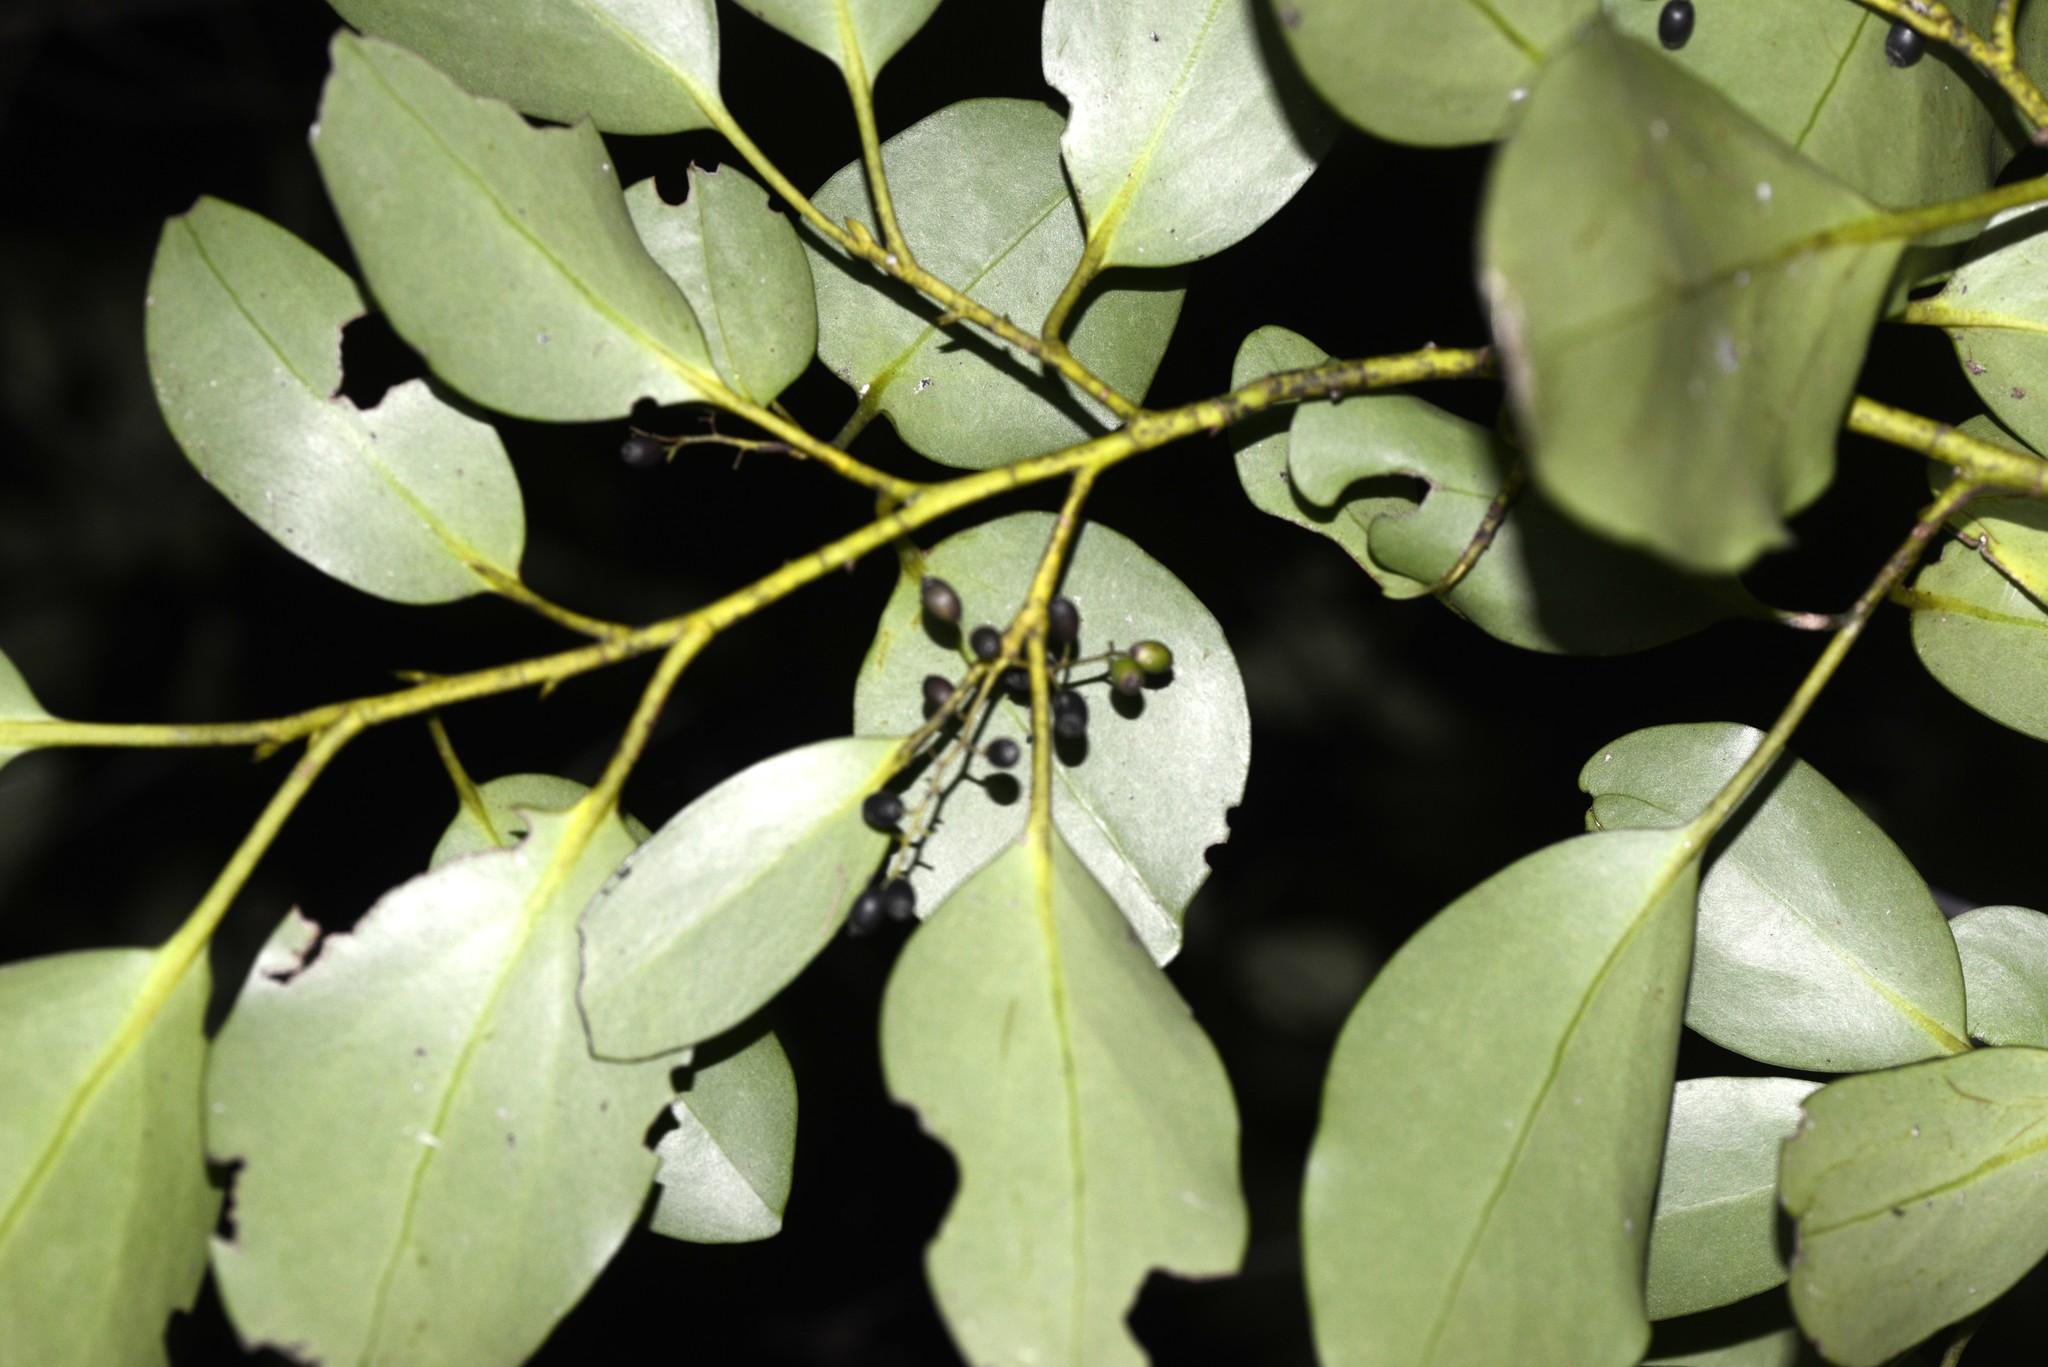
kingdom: Plantae
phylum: Tracheophyta
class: Magnoliopsida
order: Apiales
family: Griseliniaceae
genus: Griselinia
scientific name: Griselinia littoralis
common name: New zealand broadleaf
